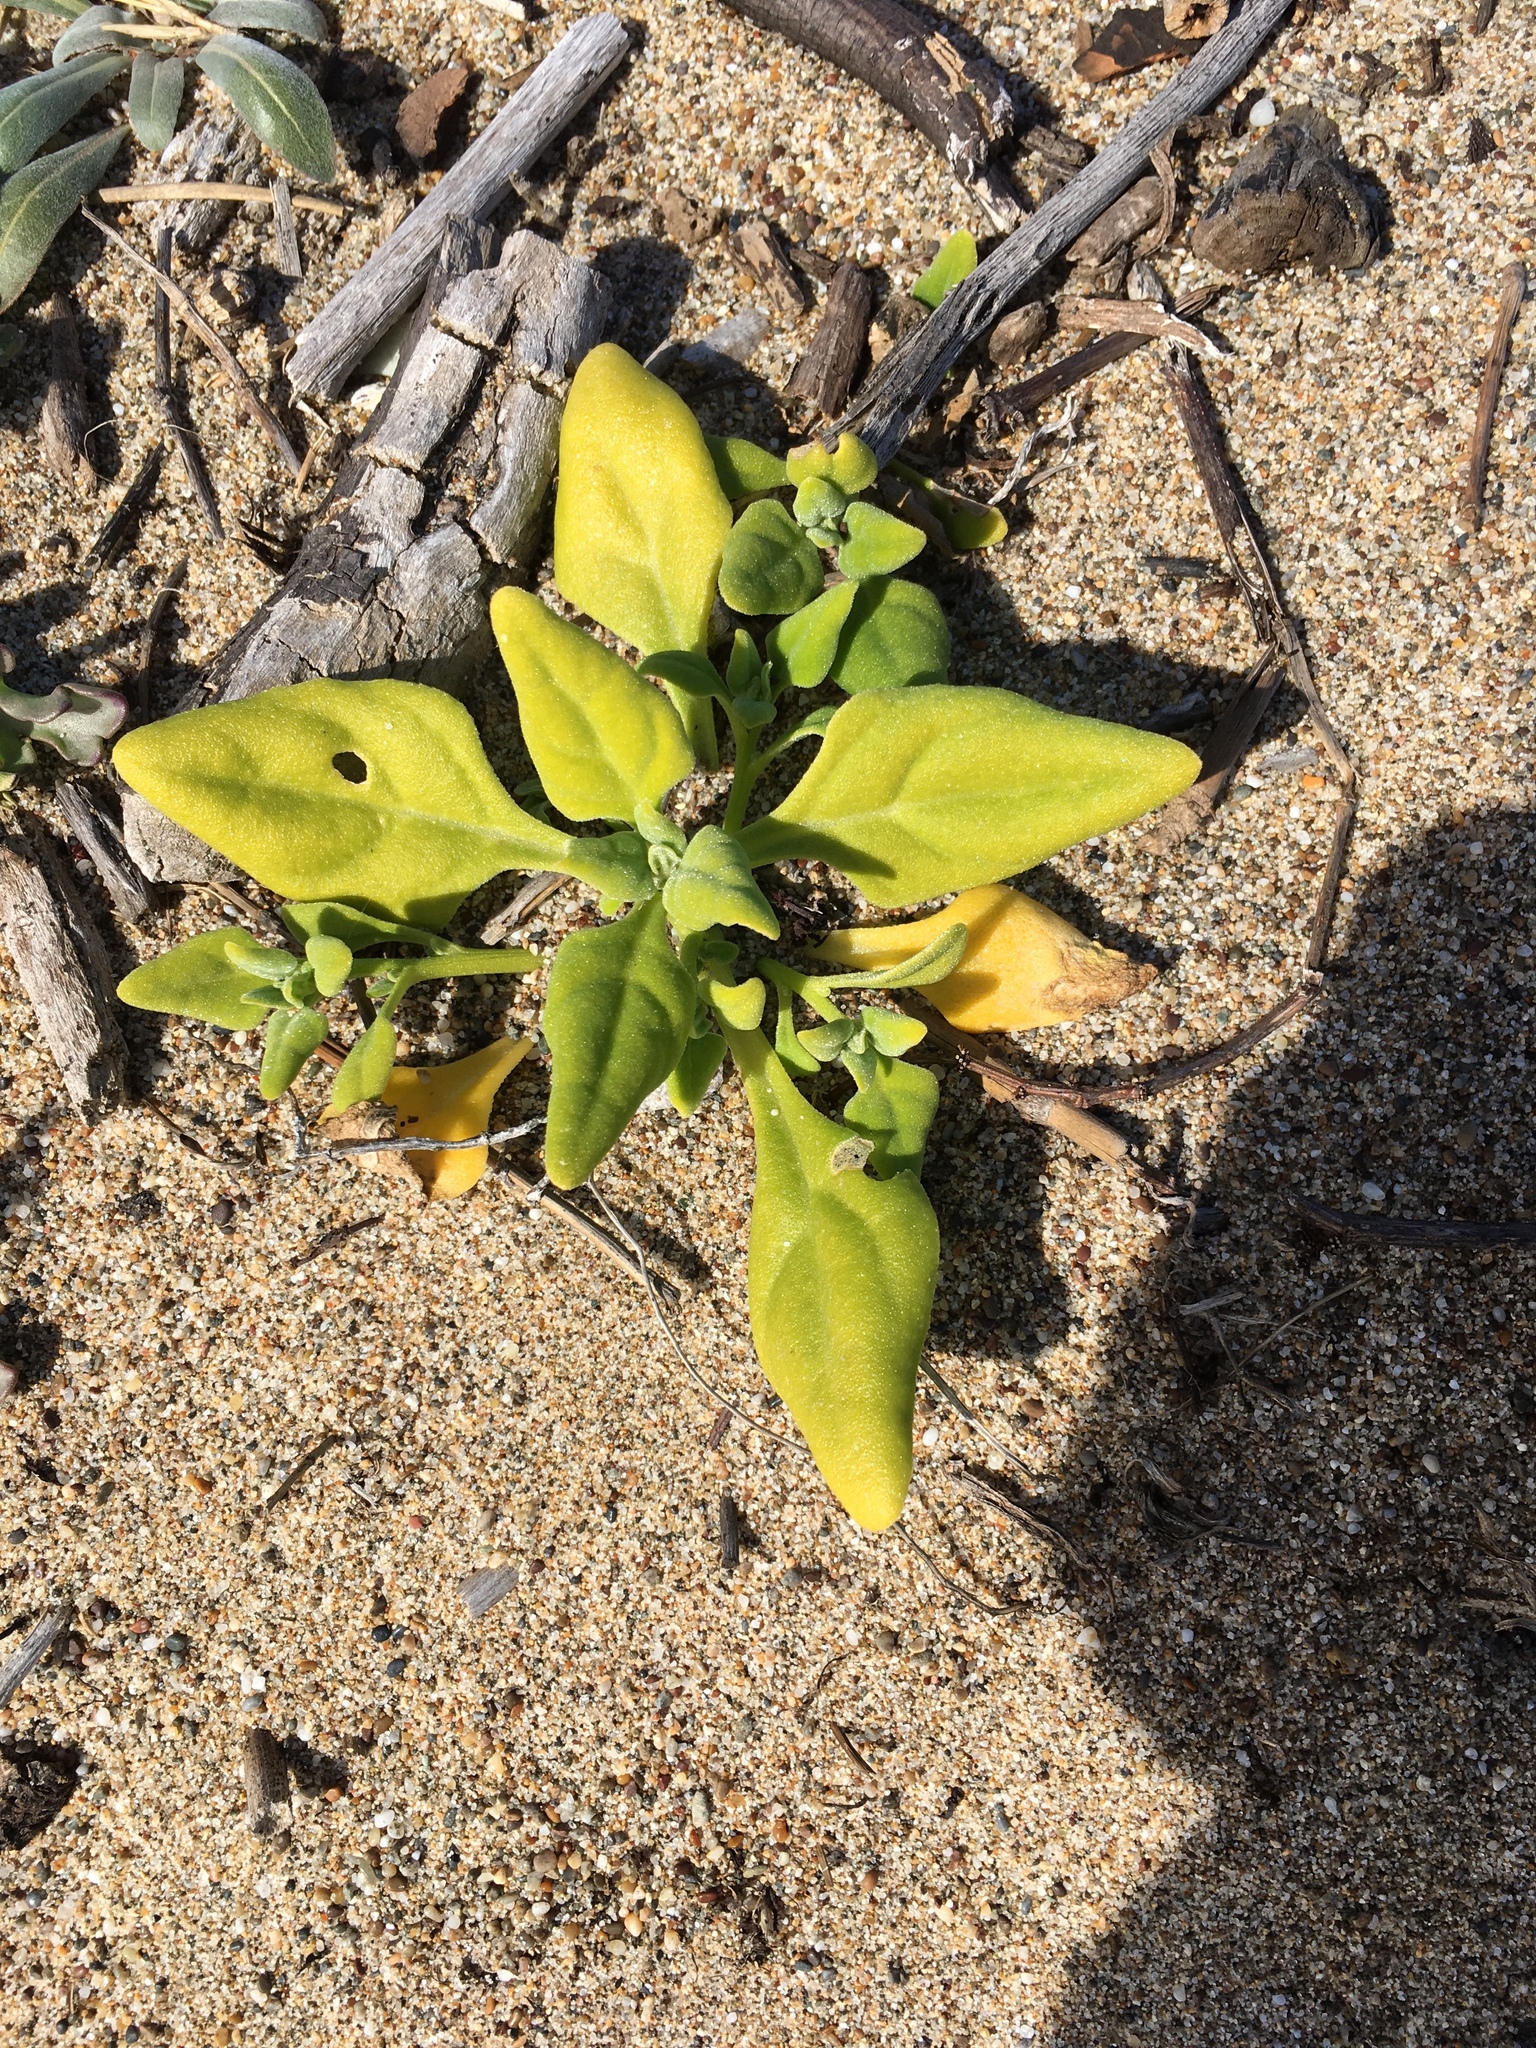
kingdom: Plantae
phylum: Tracheophyta
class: Magnoliopsida
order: Caryophyllales
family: Aizoaceae
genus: Tetragonia
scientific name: Tetragonia tetragonoides
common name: New zealand-spinach
